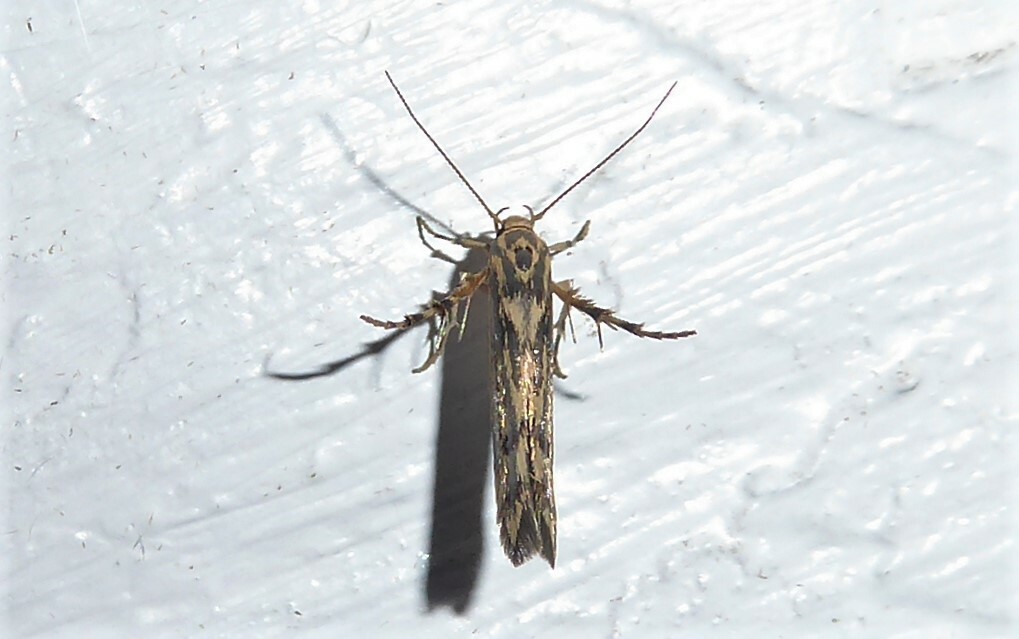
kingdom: Animalia
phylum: Arthropoda
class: Insecta
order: Lepidoptera
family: Stathmopodidae
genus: Stathmopoda
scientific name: Stathmopoda plumbiflua
